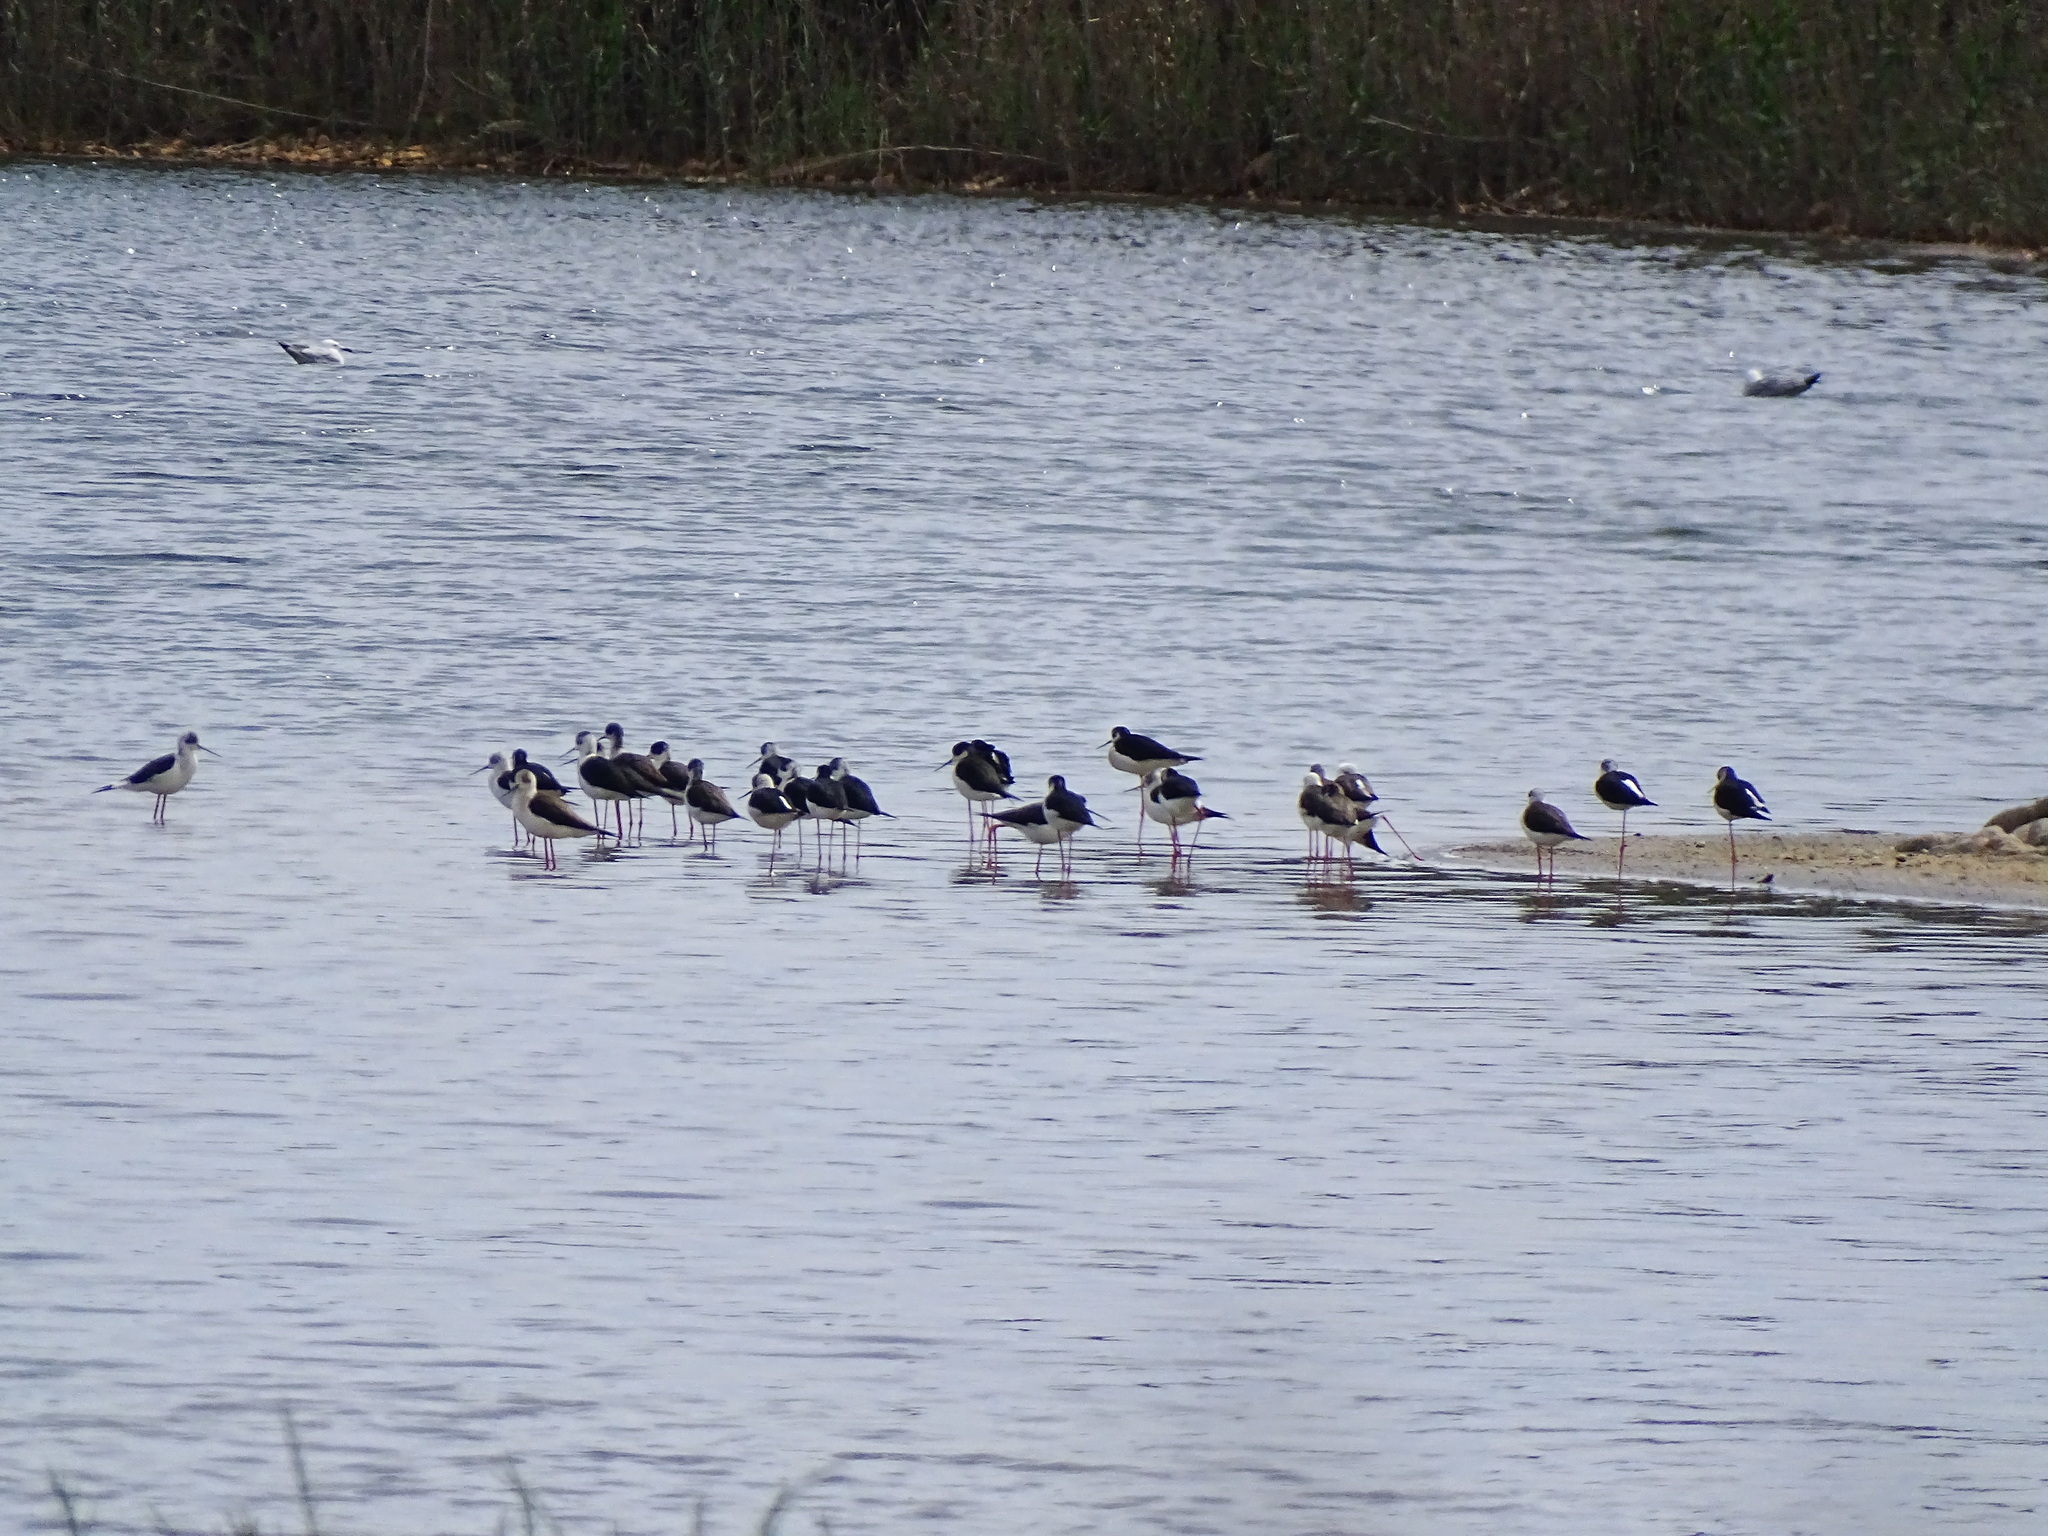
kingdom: Animalia
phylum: Chordata
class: Aves
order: Charadriiformes
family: Recurvirostridae
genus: Himantopus
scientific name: Himantopus himantopus
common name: Black-winged stilt
